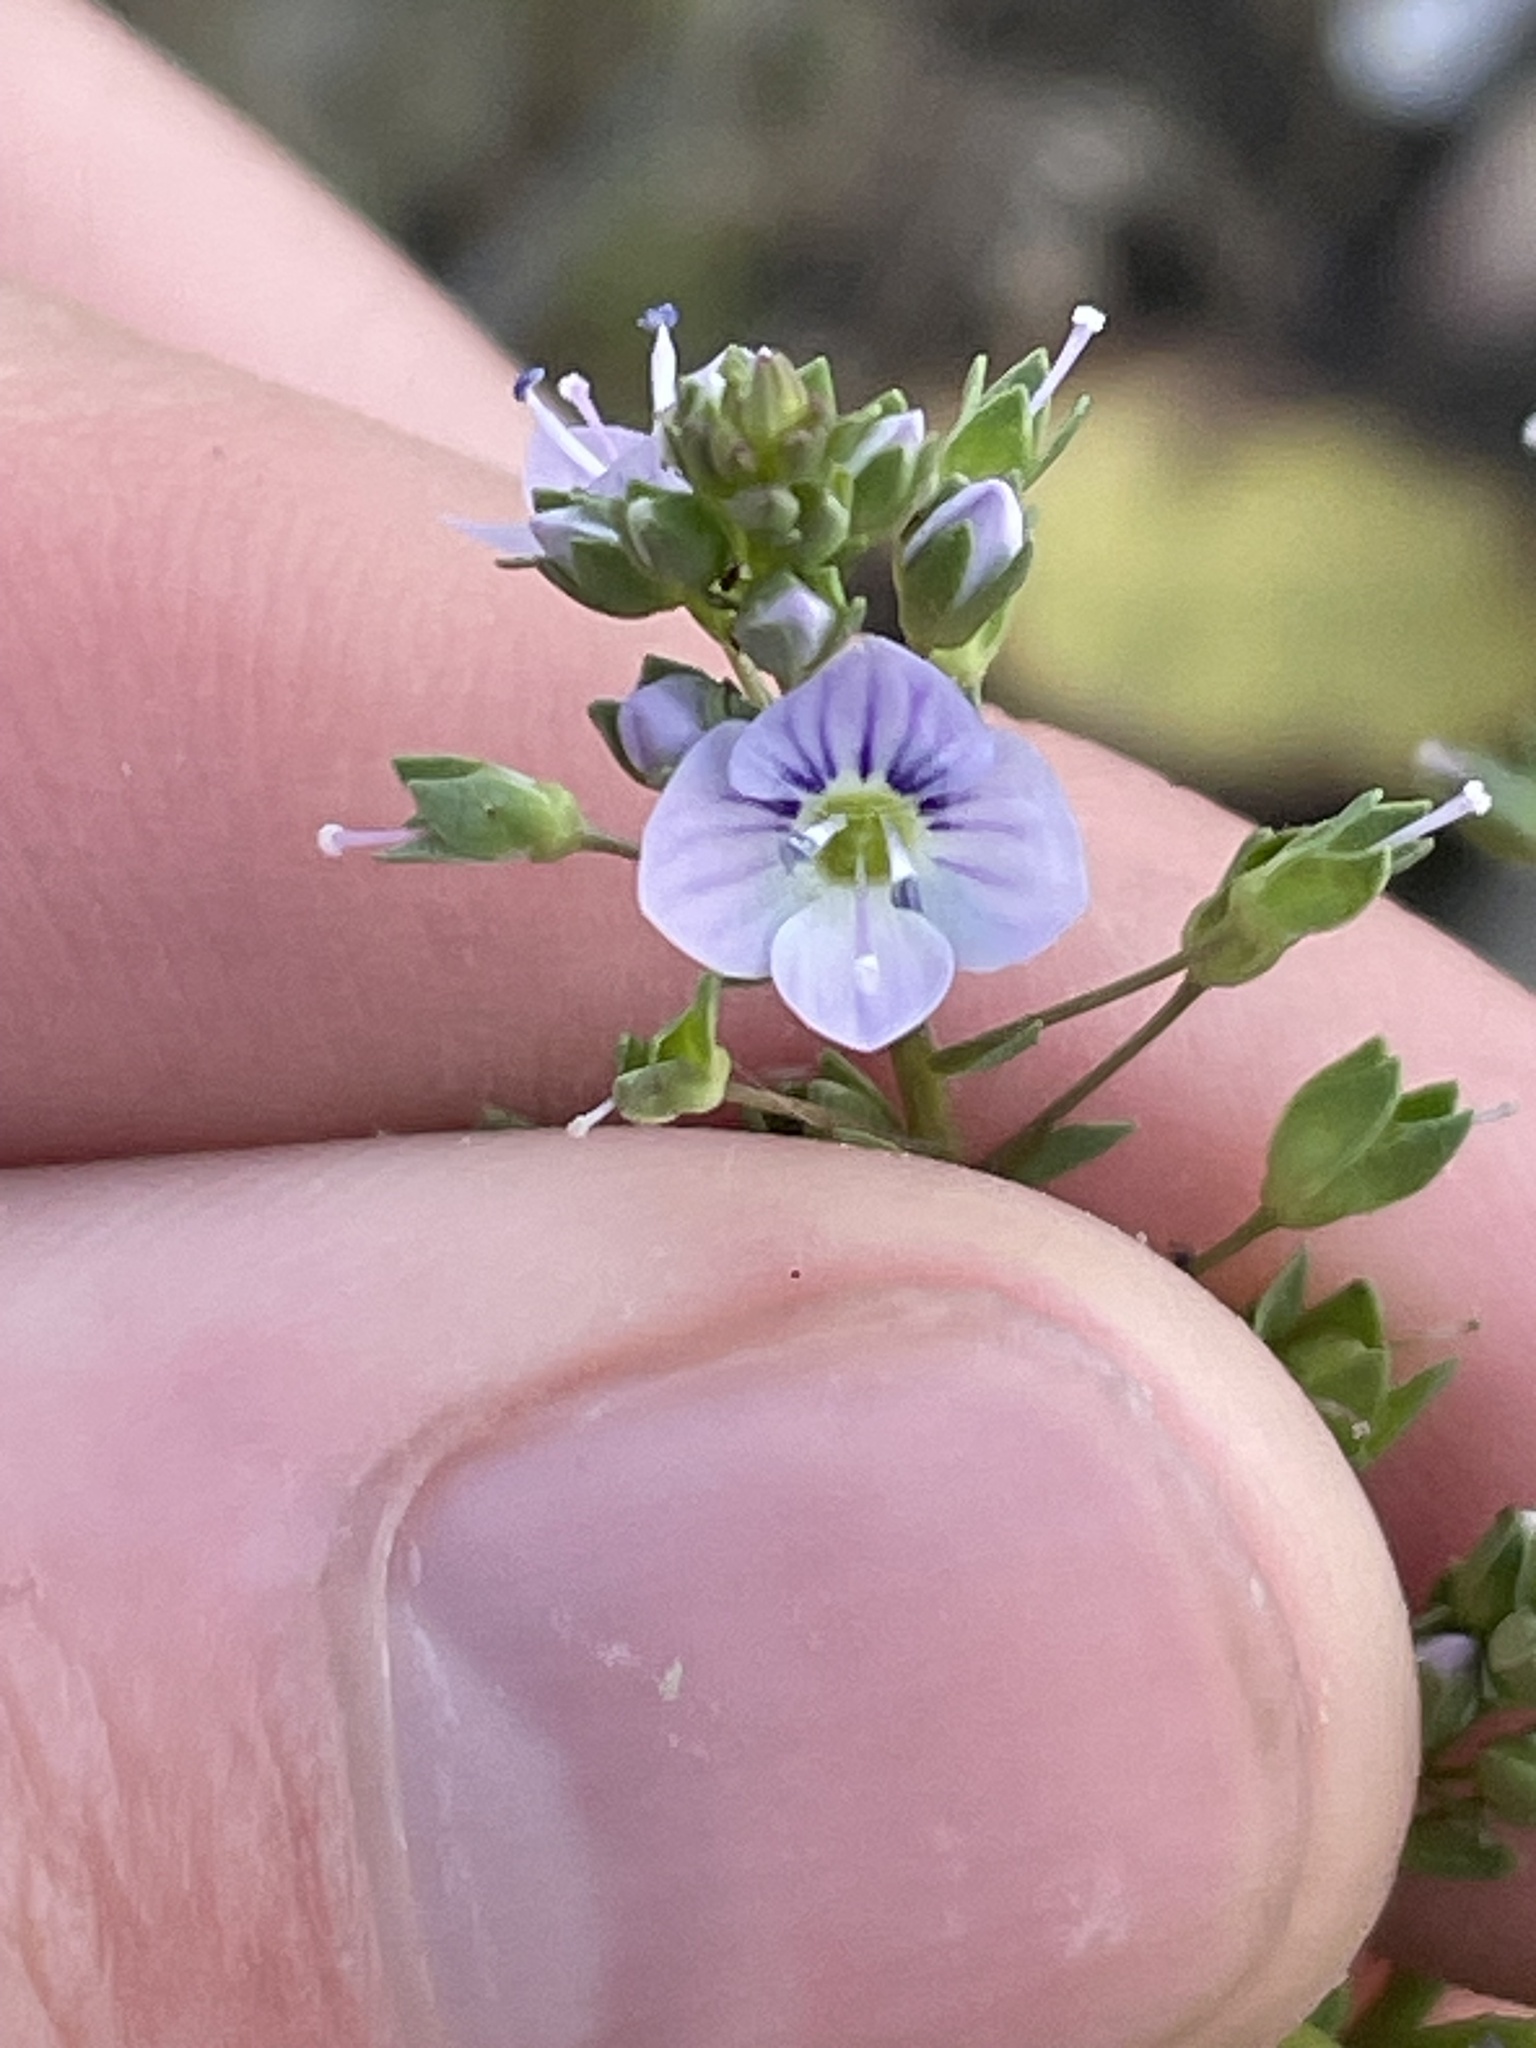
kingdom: Plantae
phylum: Tracheophyta
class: Magnoliopsida
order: Lamiales
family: Plantaginaceae
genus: Veronica
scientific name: Veronica anagallis-aquatica
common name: Water speedwell
